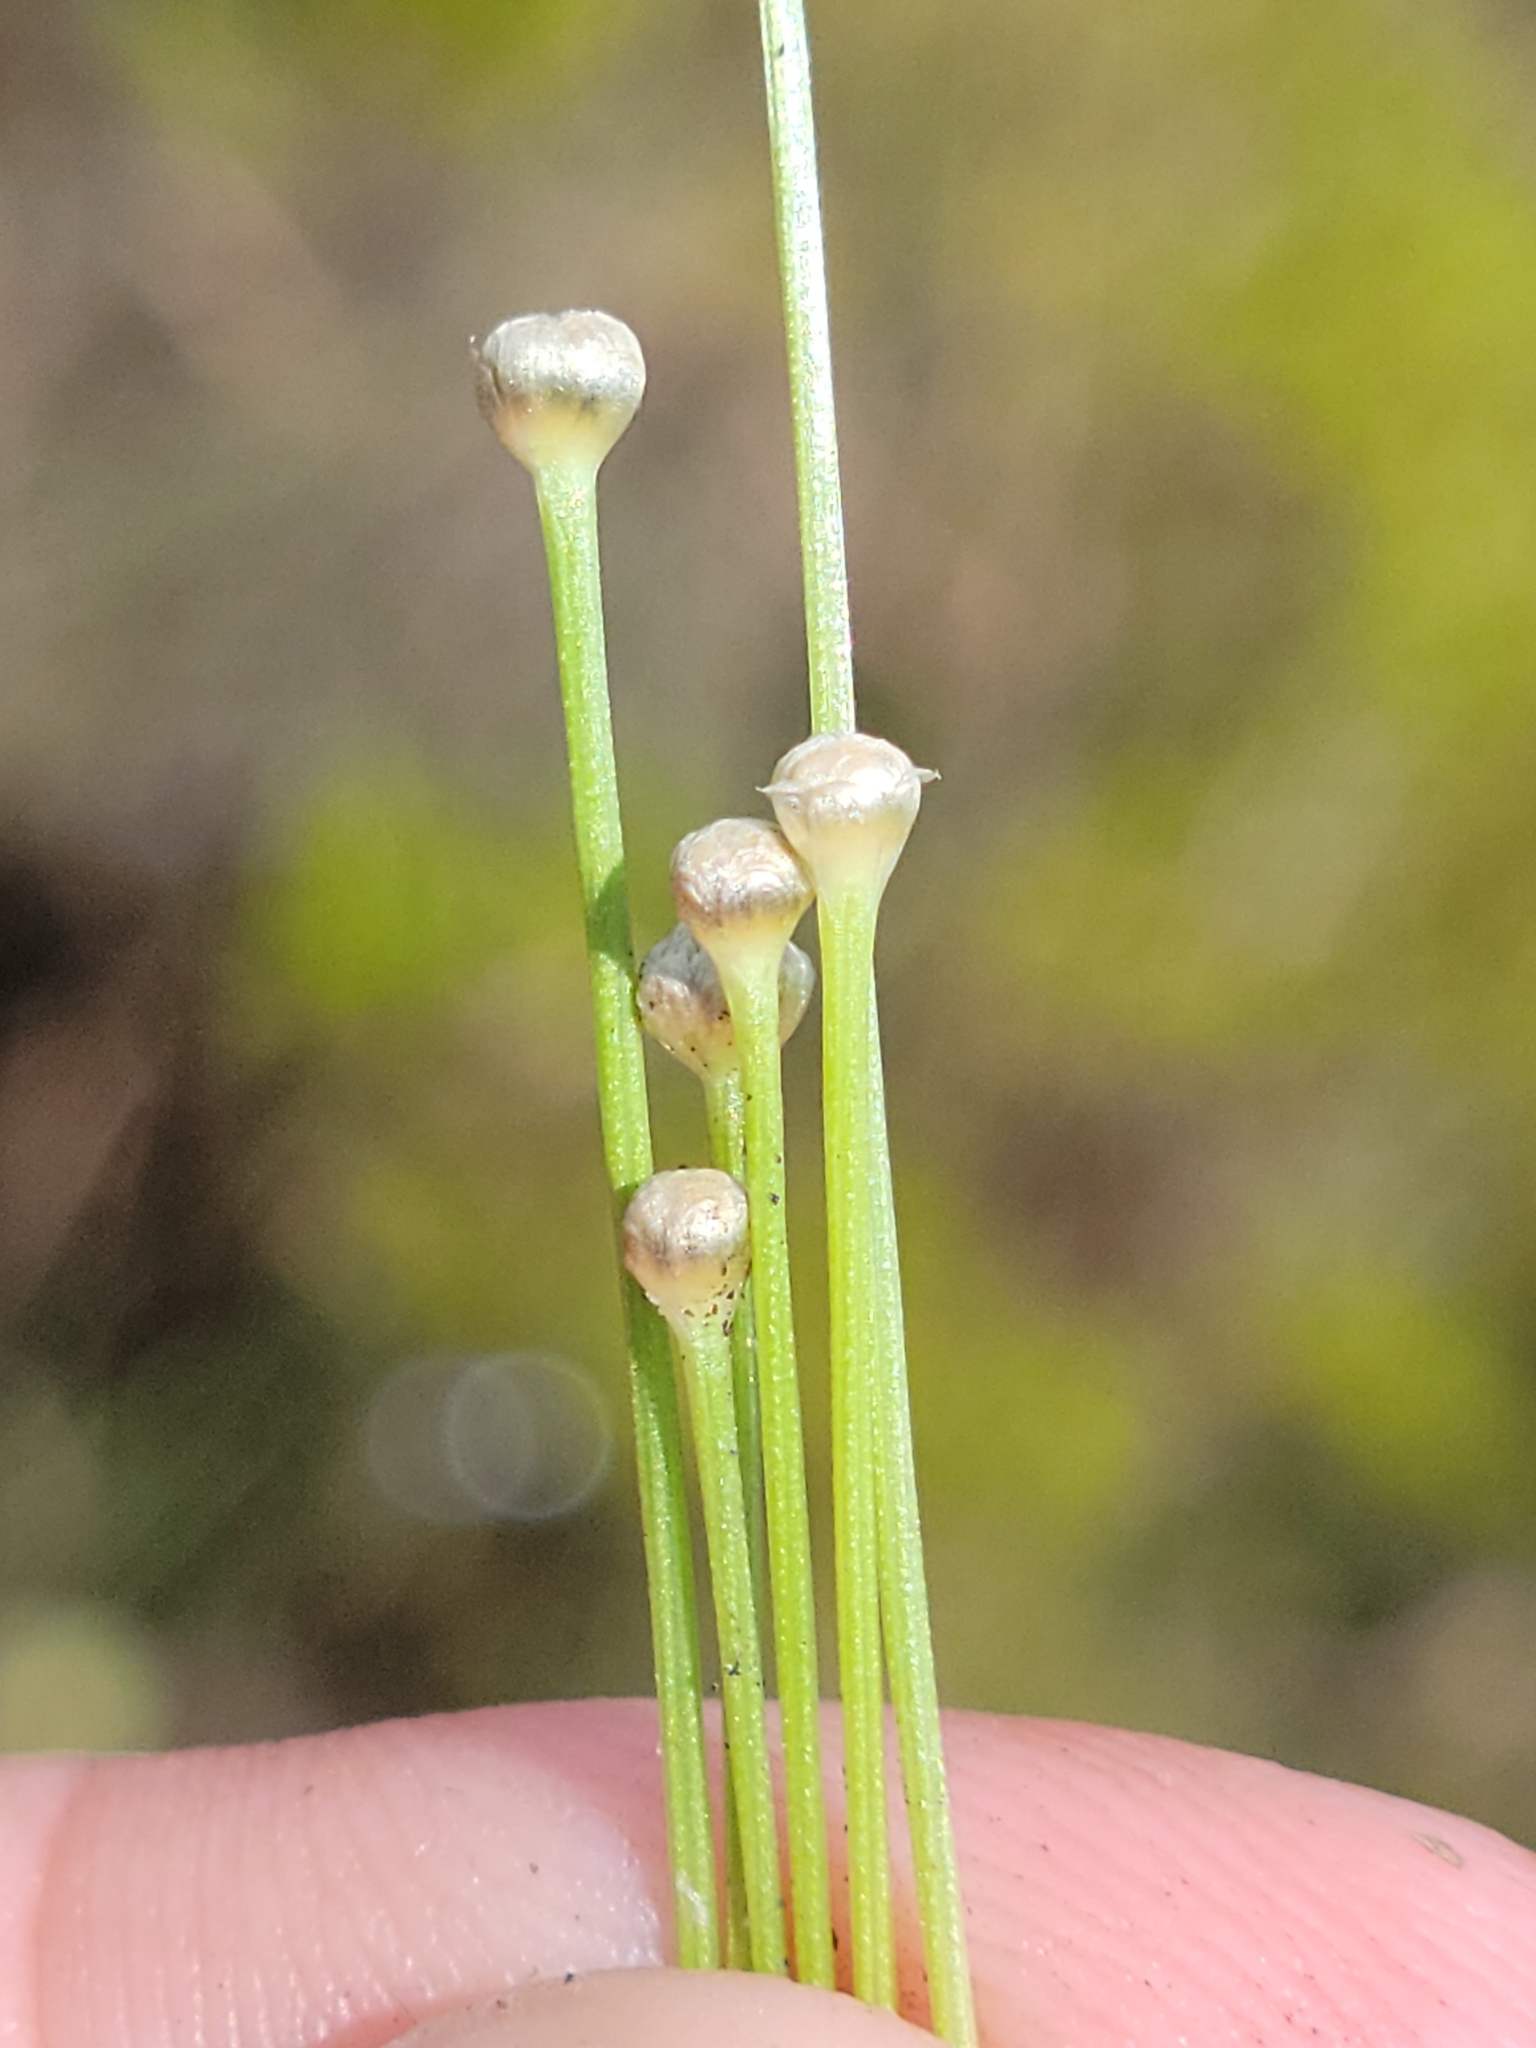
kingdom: Plantae
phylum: Tracheophyta
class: Liliopsida
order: Poales
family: Eriocaulaceae
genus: Eriocaulon
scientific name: Eriocaulon ravenelii
